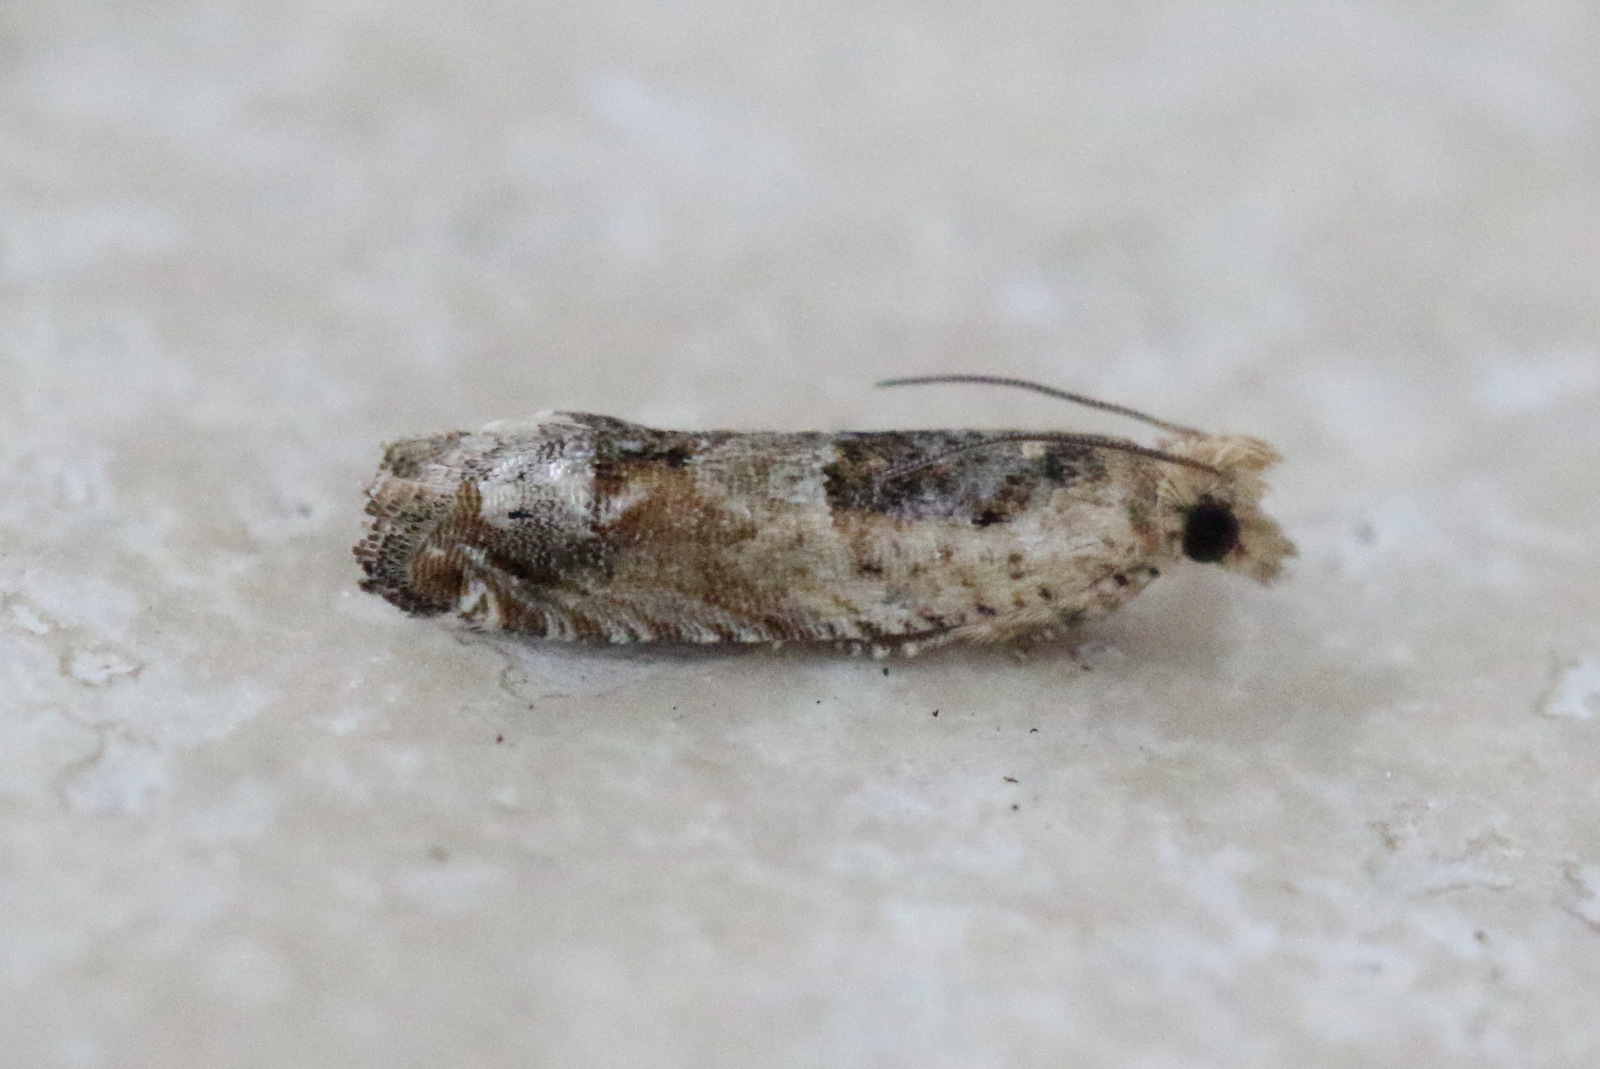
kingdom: Animalia
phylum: Arthropoda
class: Insecta
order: Lepidoptera
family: Tortricidae
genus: Crocidosema
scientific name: Crocidosema plebejana
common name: Southern bell
